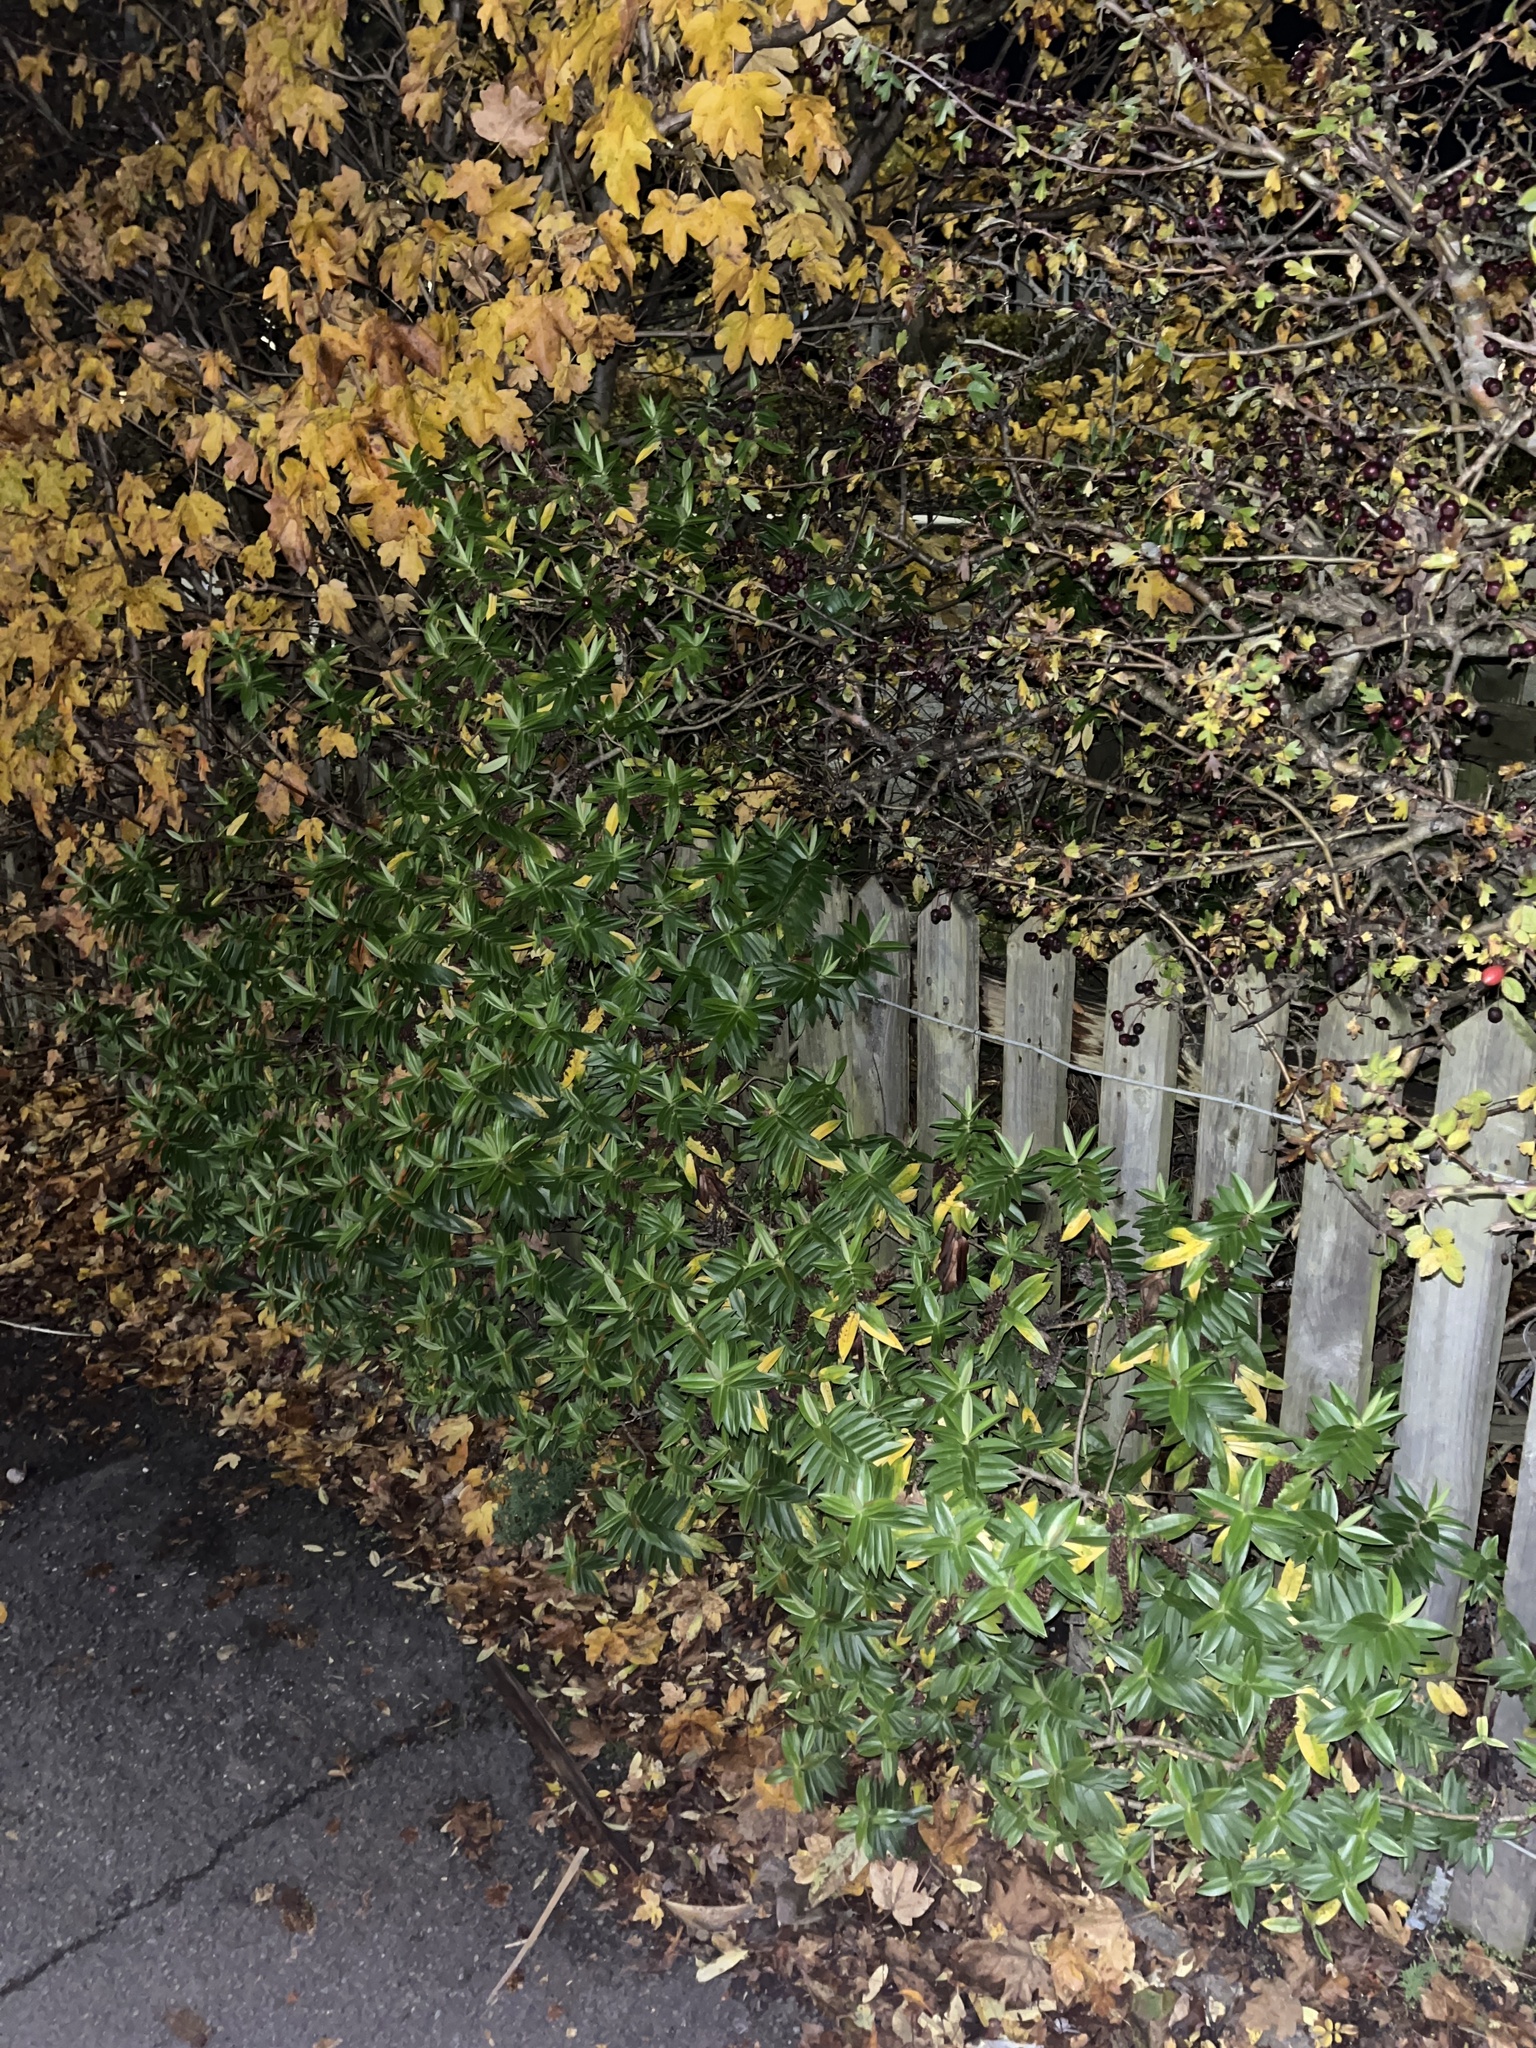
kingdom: Plantae
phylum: Tracheophyta
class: Magnoliopsida
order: Lamiales
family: Plantaginaceae
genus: Veronica
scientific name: Veronica lewisii
